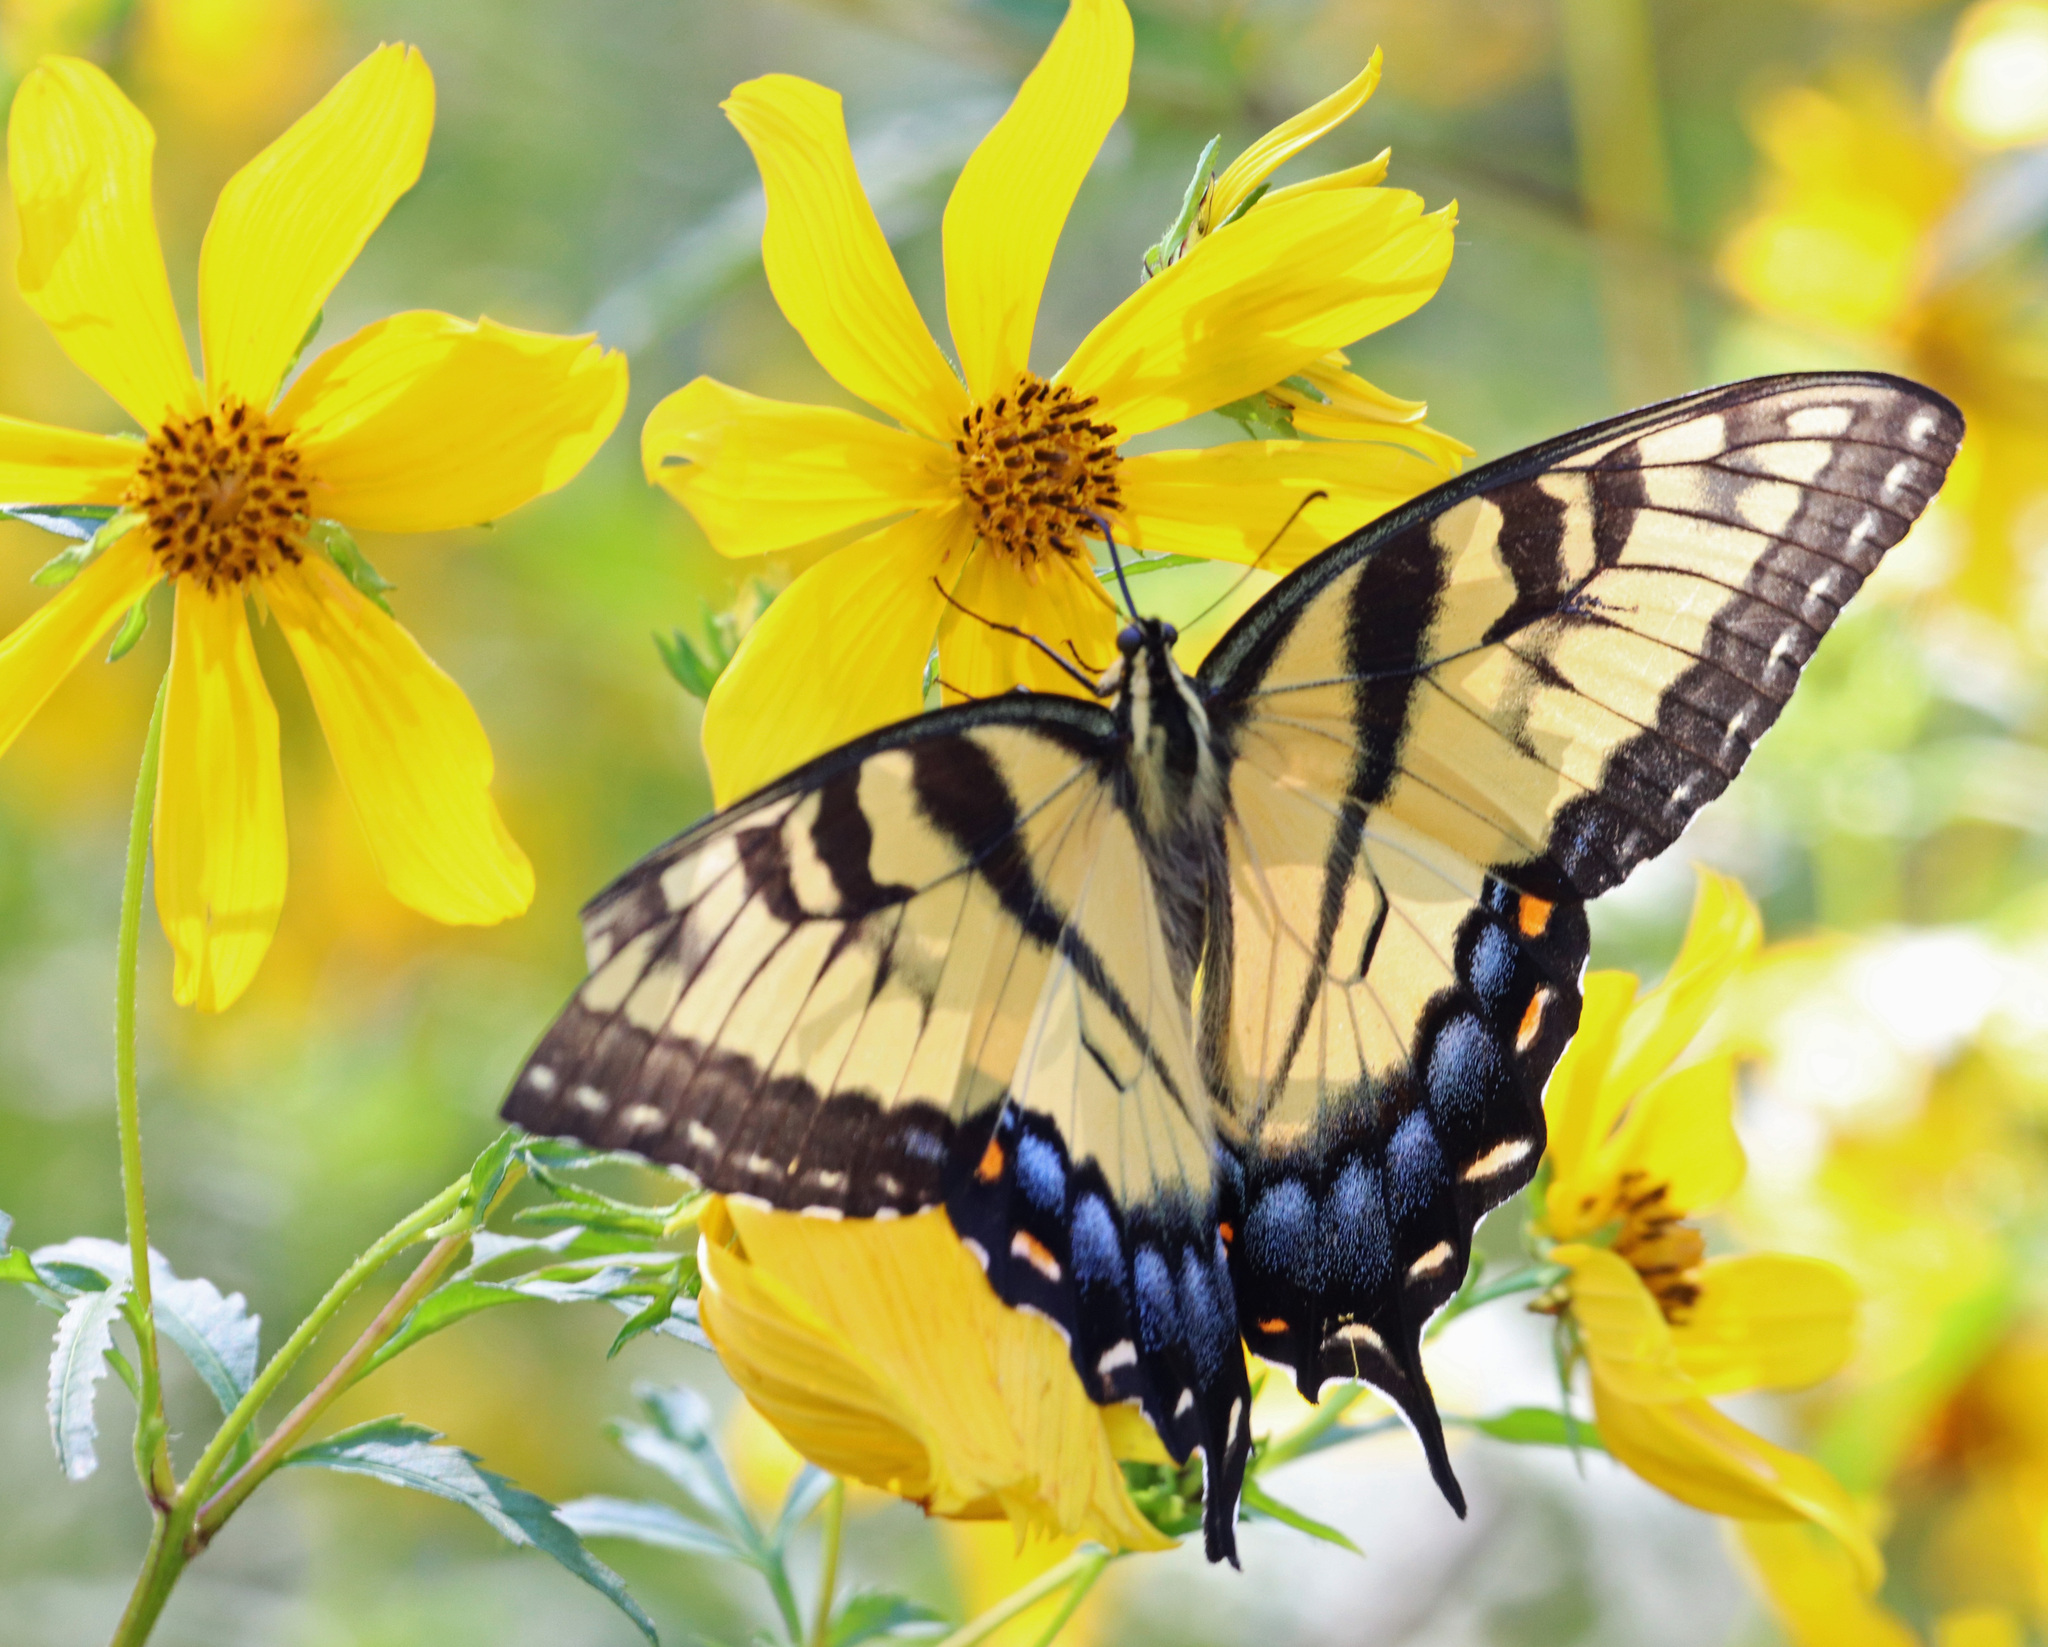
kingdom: Animalia
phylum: Arthropoda
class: Insecta
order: Lepidoptera
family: Papilionidae
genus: Papilio
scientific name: Papilio glaucus
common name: Tiger swallowtail
